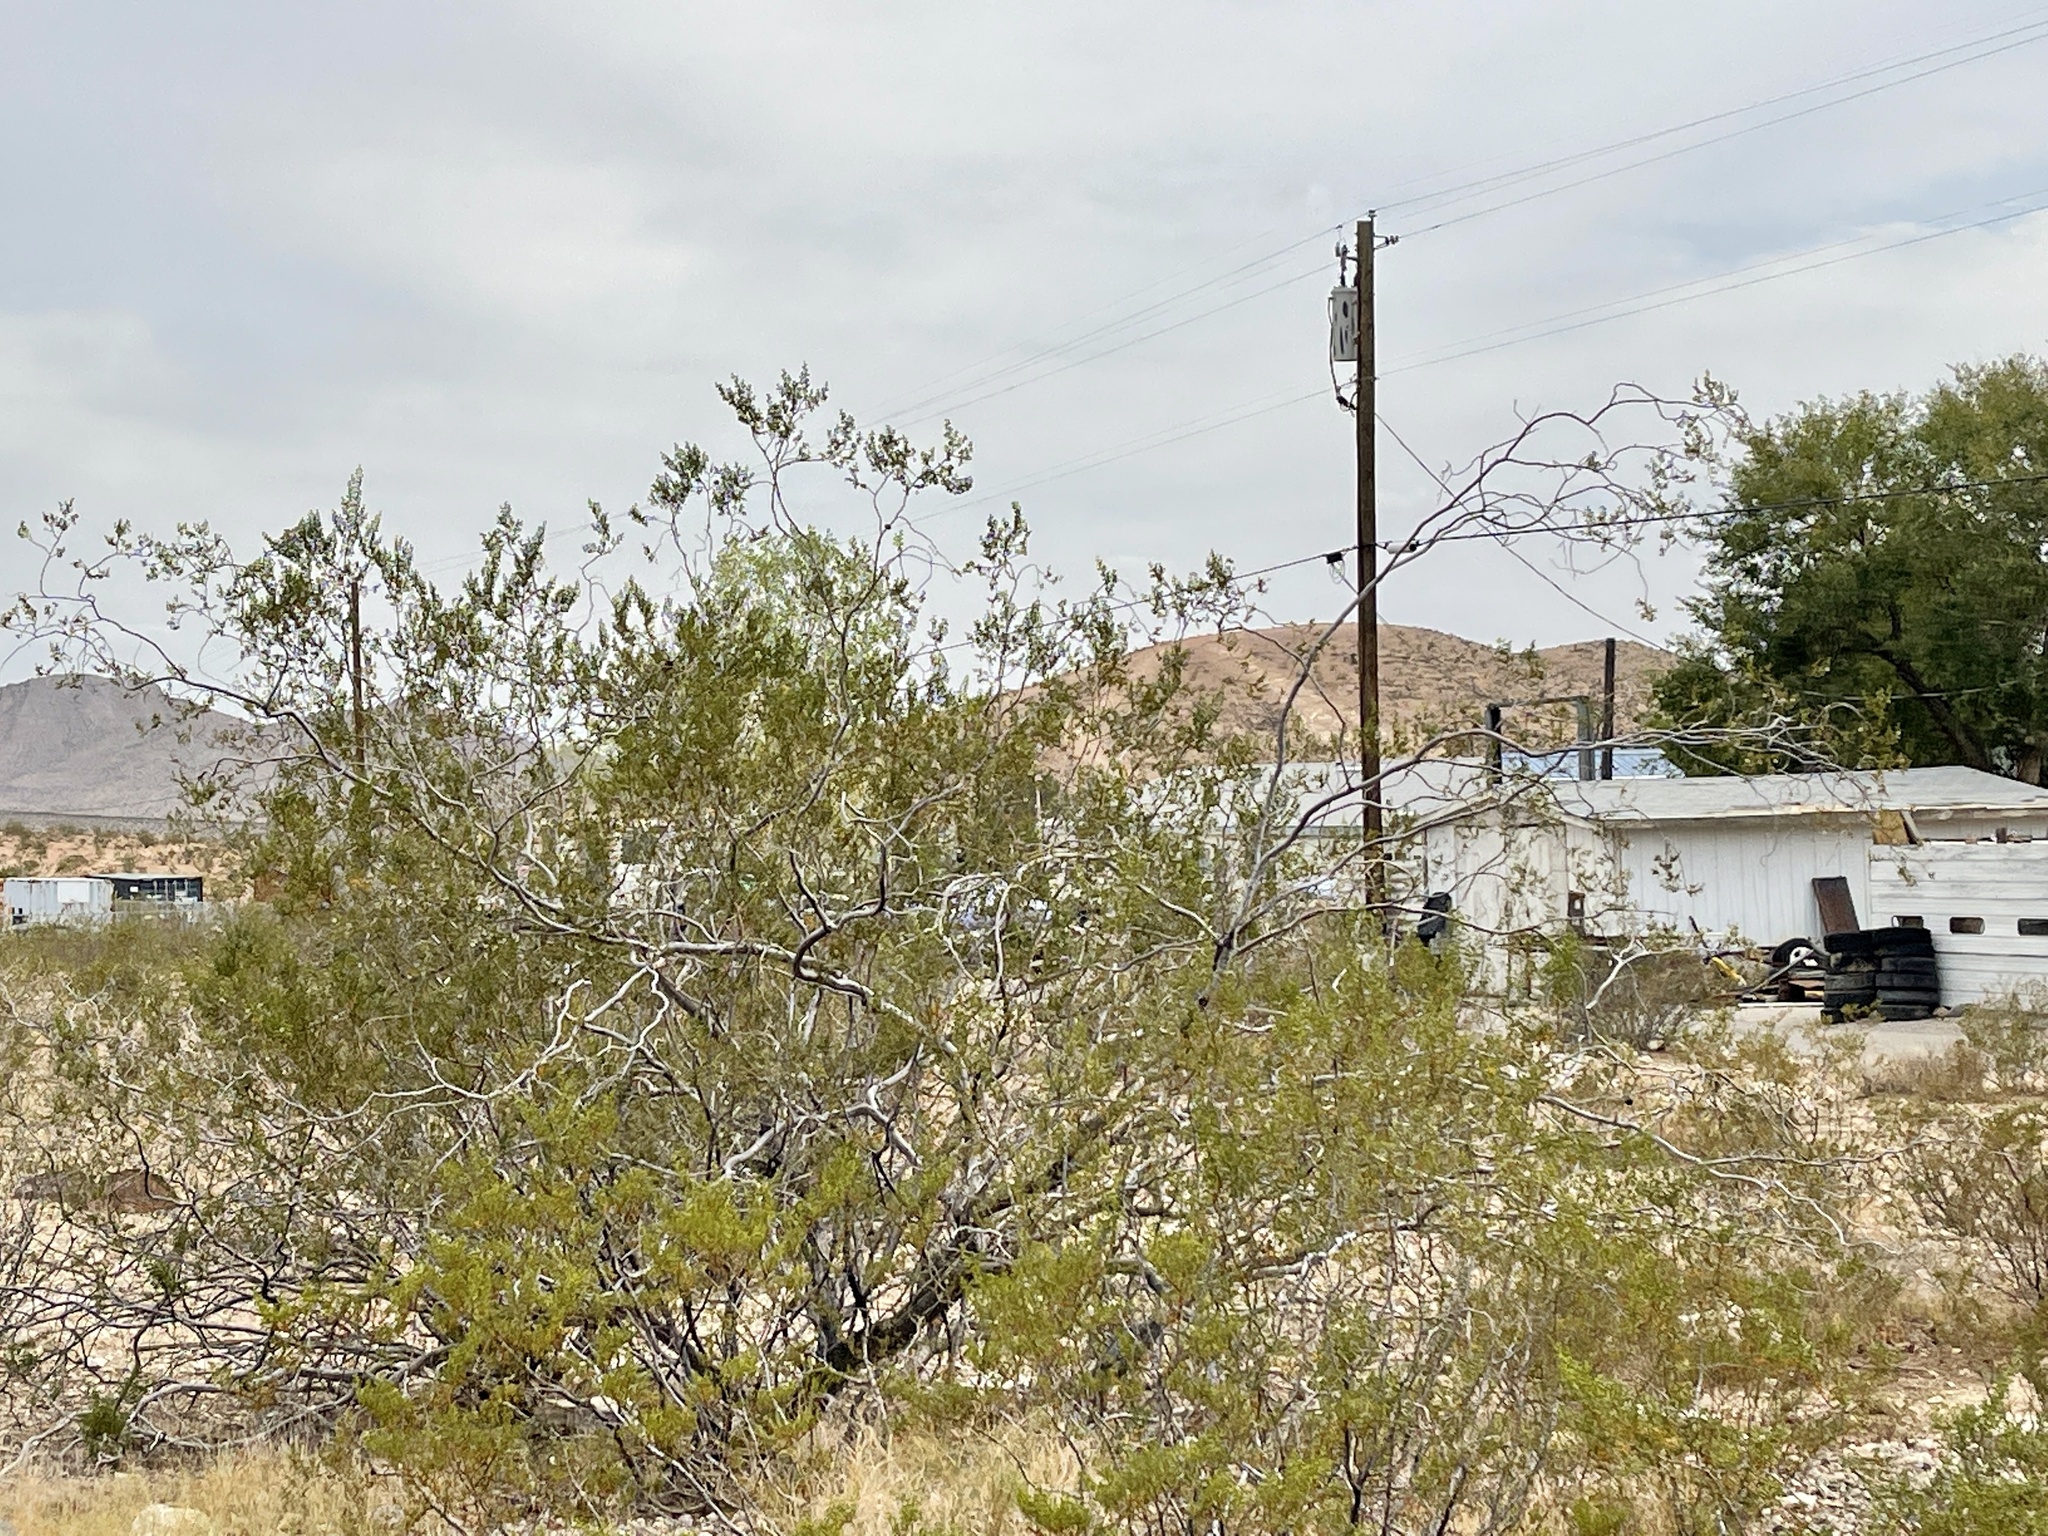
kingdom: Plantae
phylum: Tracheophyta
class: Magnoliopsida
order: Zygophyllales
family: Zygophyllaceae
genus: Larrea
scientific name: Larrea tridentata
